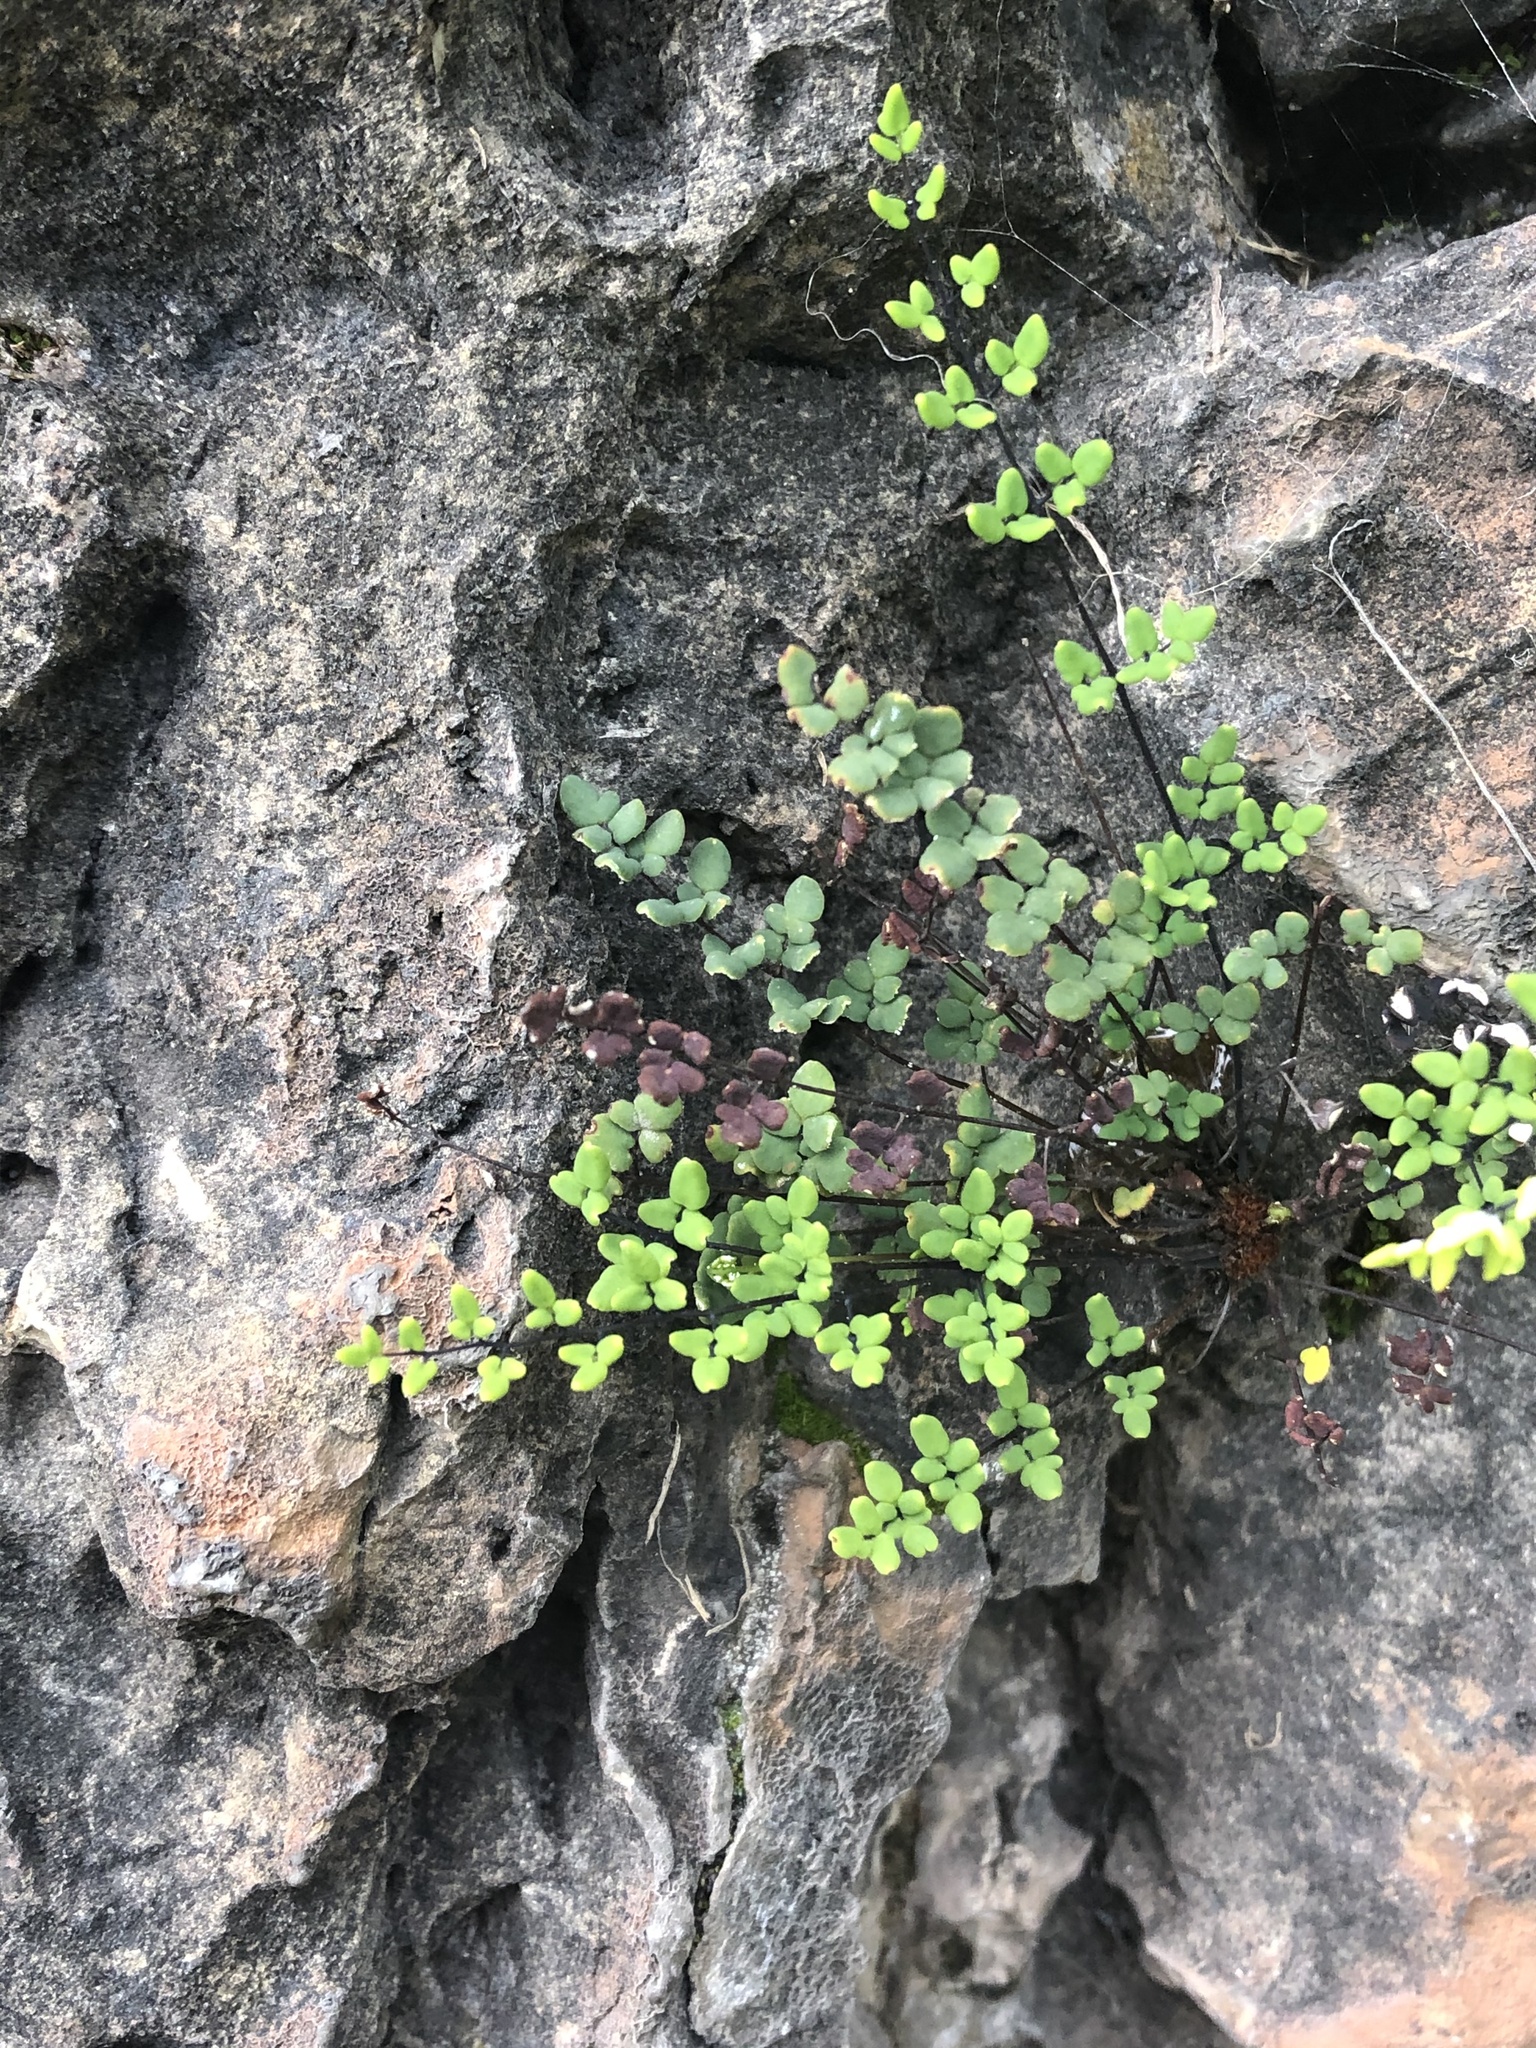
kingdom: Plantae
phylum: Tracheophyta
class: Polypodiopsida
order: Polypodiales
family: Pteridaceae
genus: Argyrochosma
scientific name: Argyrochosma nivea
